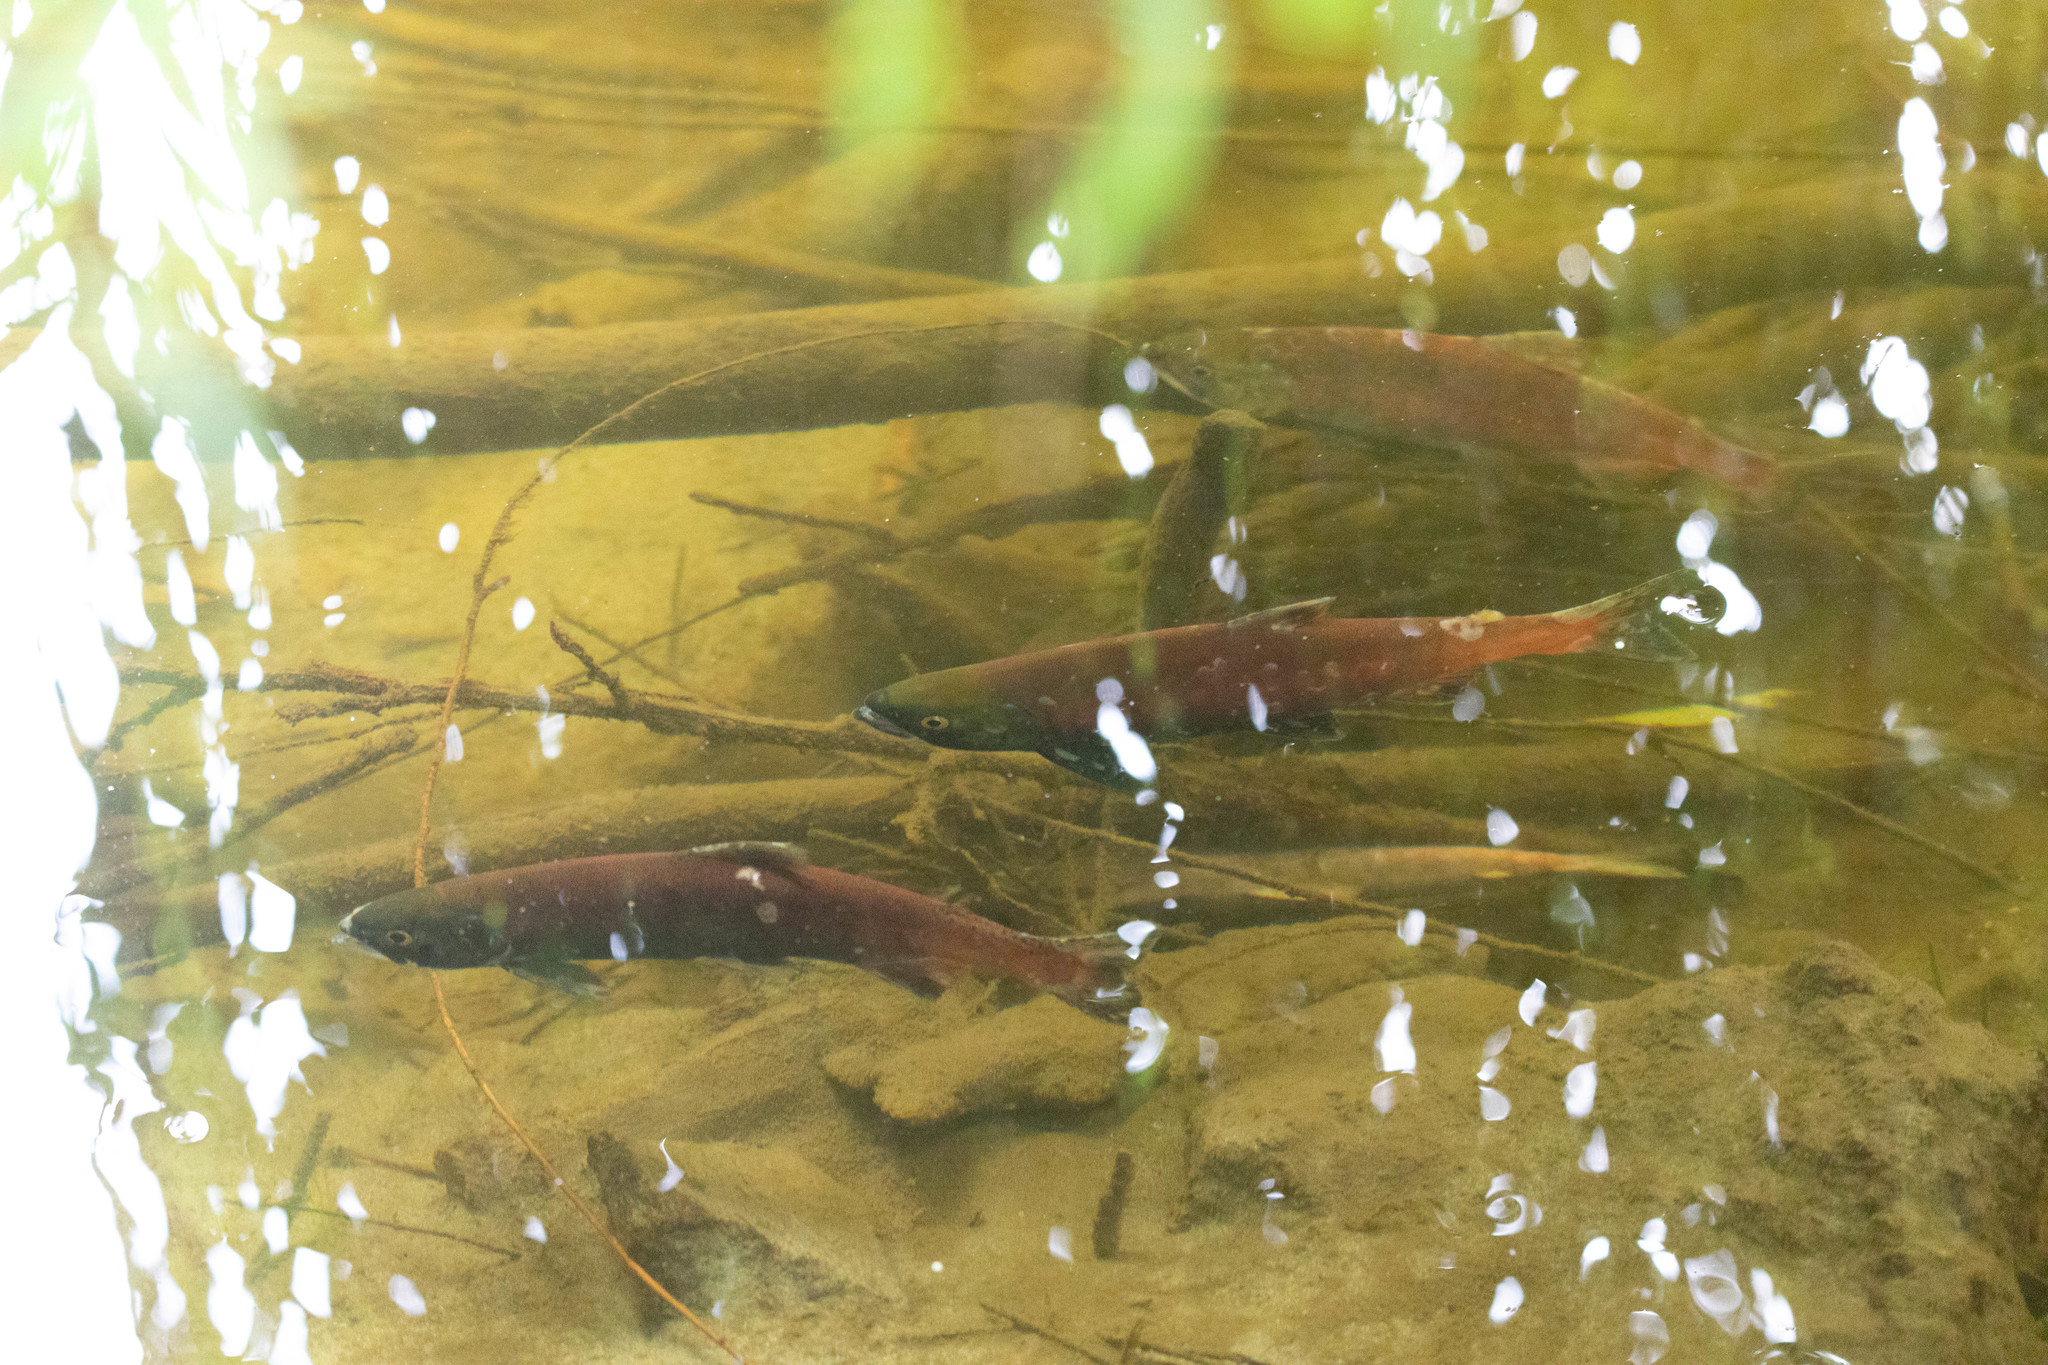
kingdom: Animalia
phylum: Chordata
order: Salmoniformes
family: Salmonidae
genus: Oncorhynchus
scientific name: Oncorhynchus nerka
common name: Sockeye salmon
